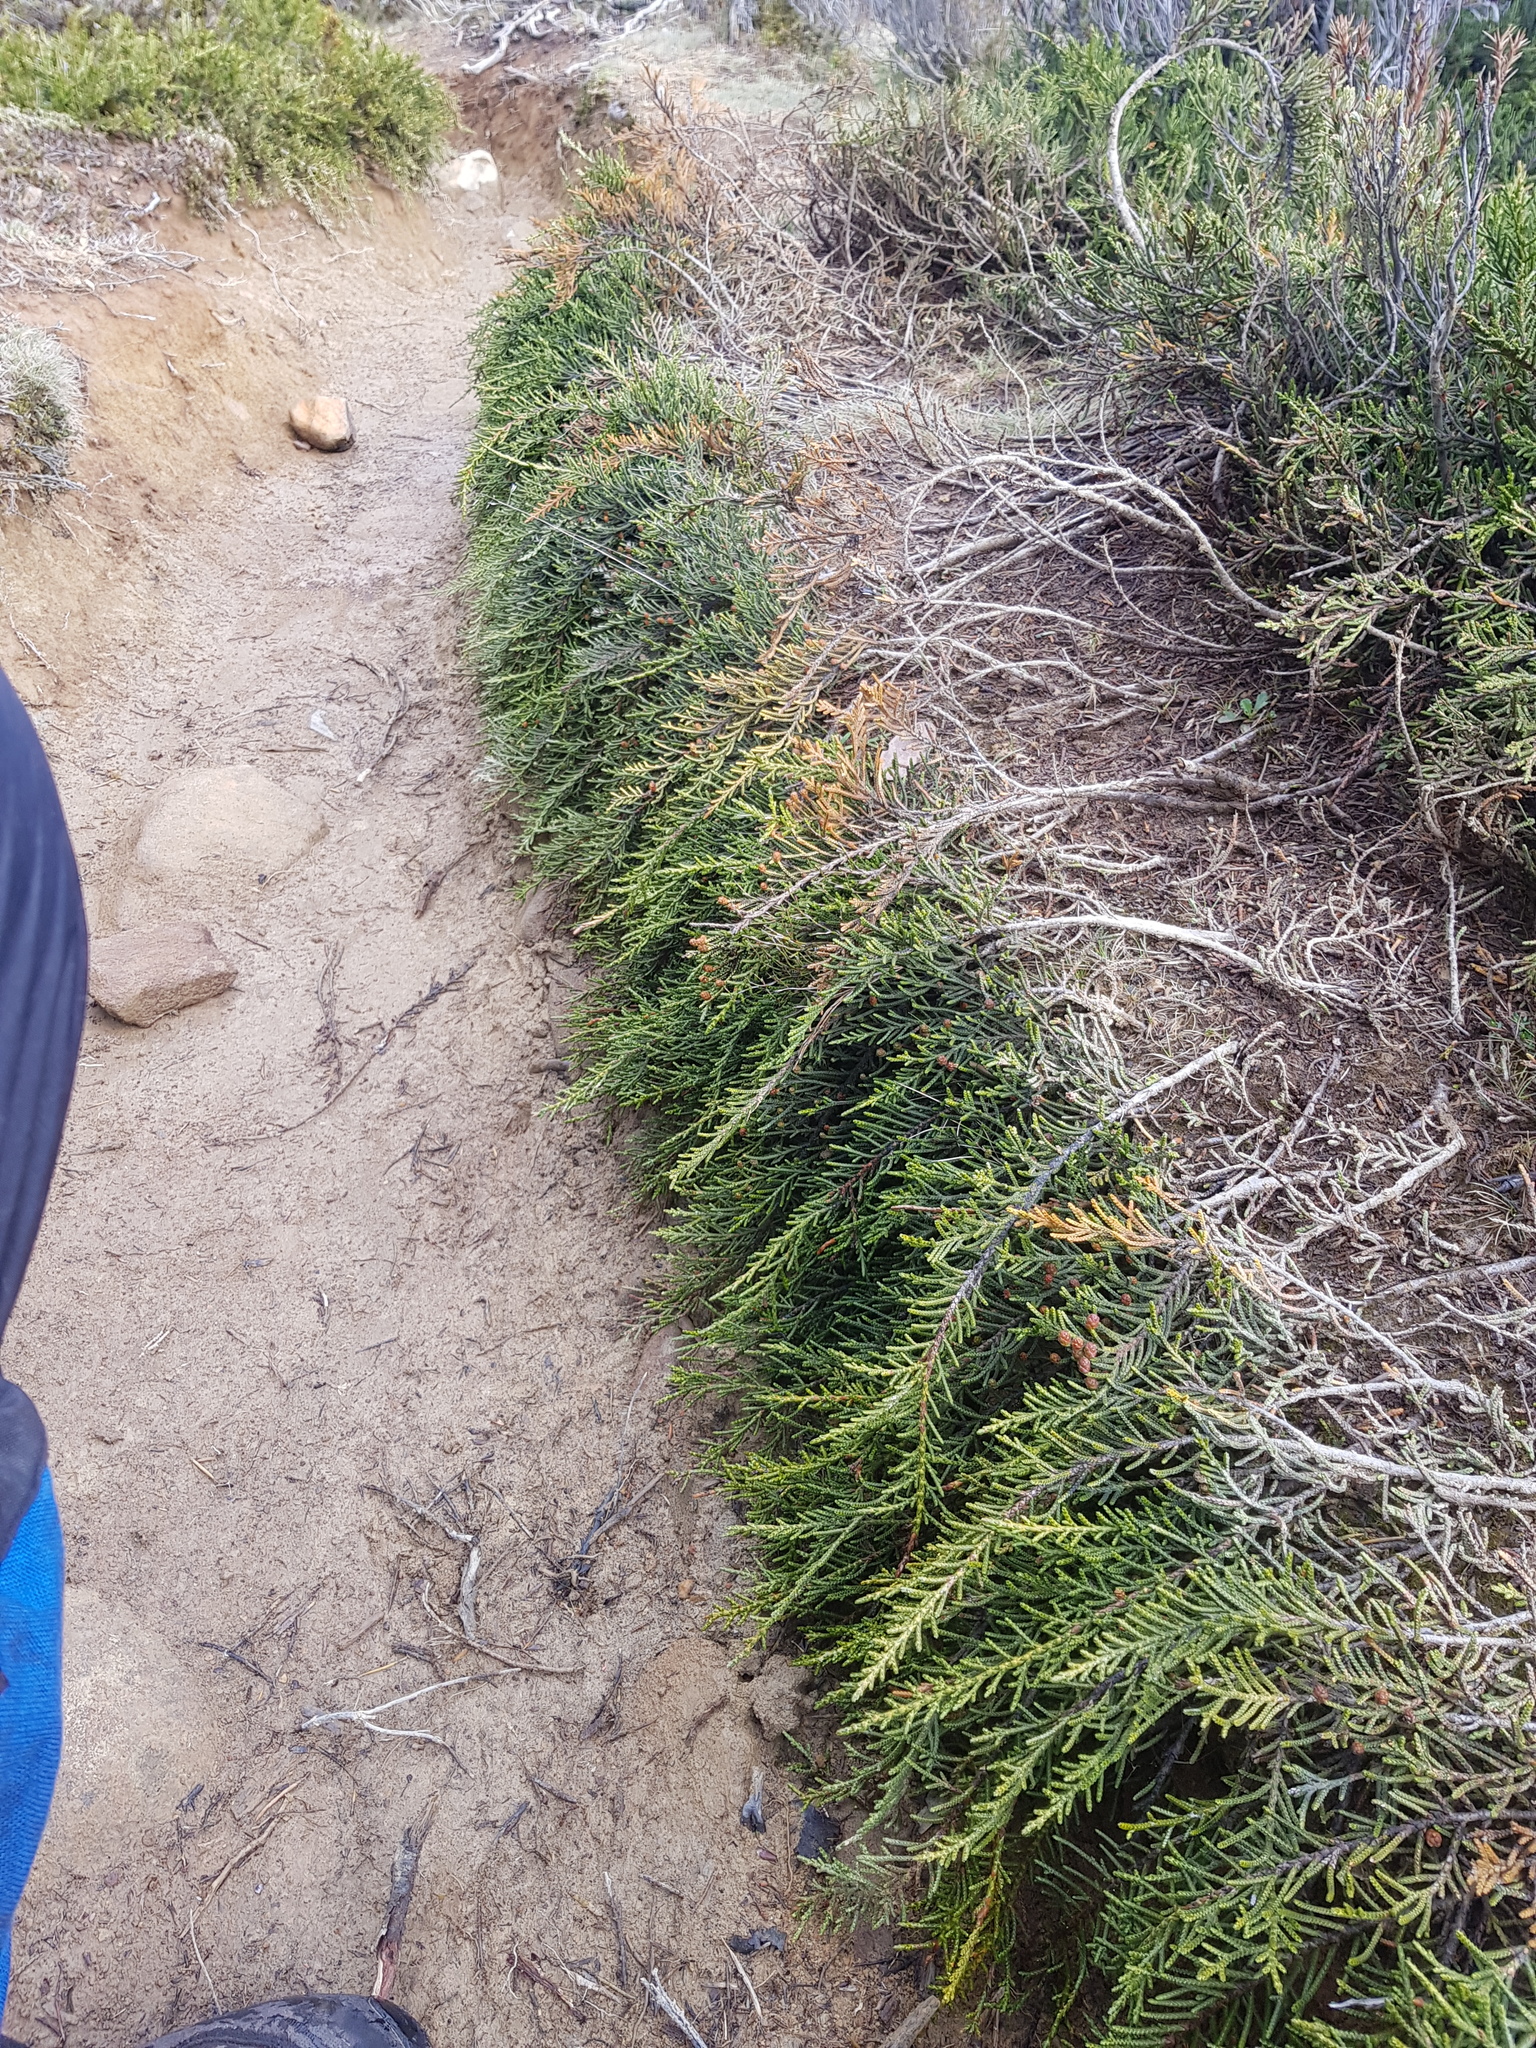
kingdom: Plantae
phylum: Tracheophyta
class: Pinopsida
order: Pinales
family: Podocarpaceae
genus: Microcachrys
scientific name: Microcachrys tetragona
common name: Creeping pine
